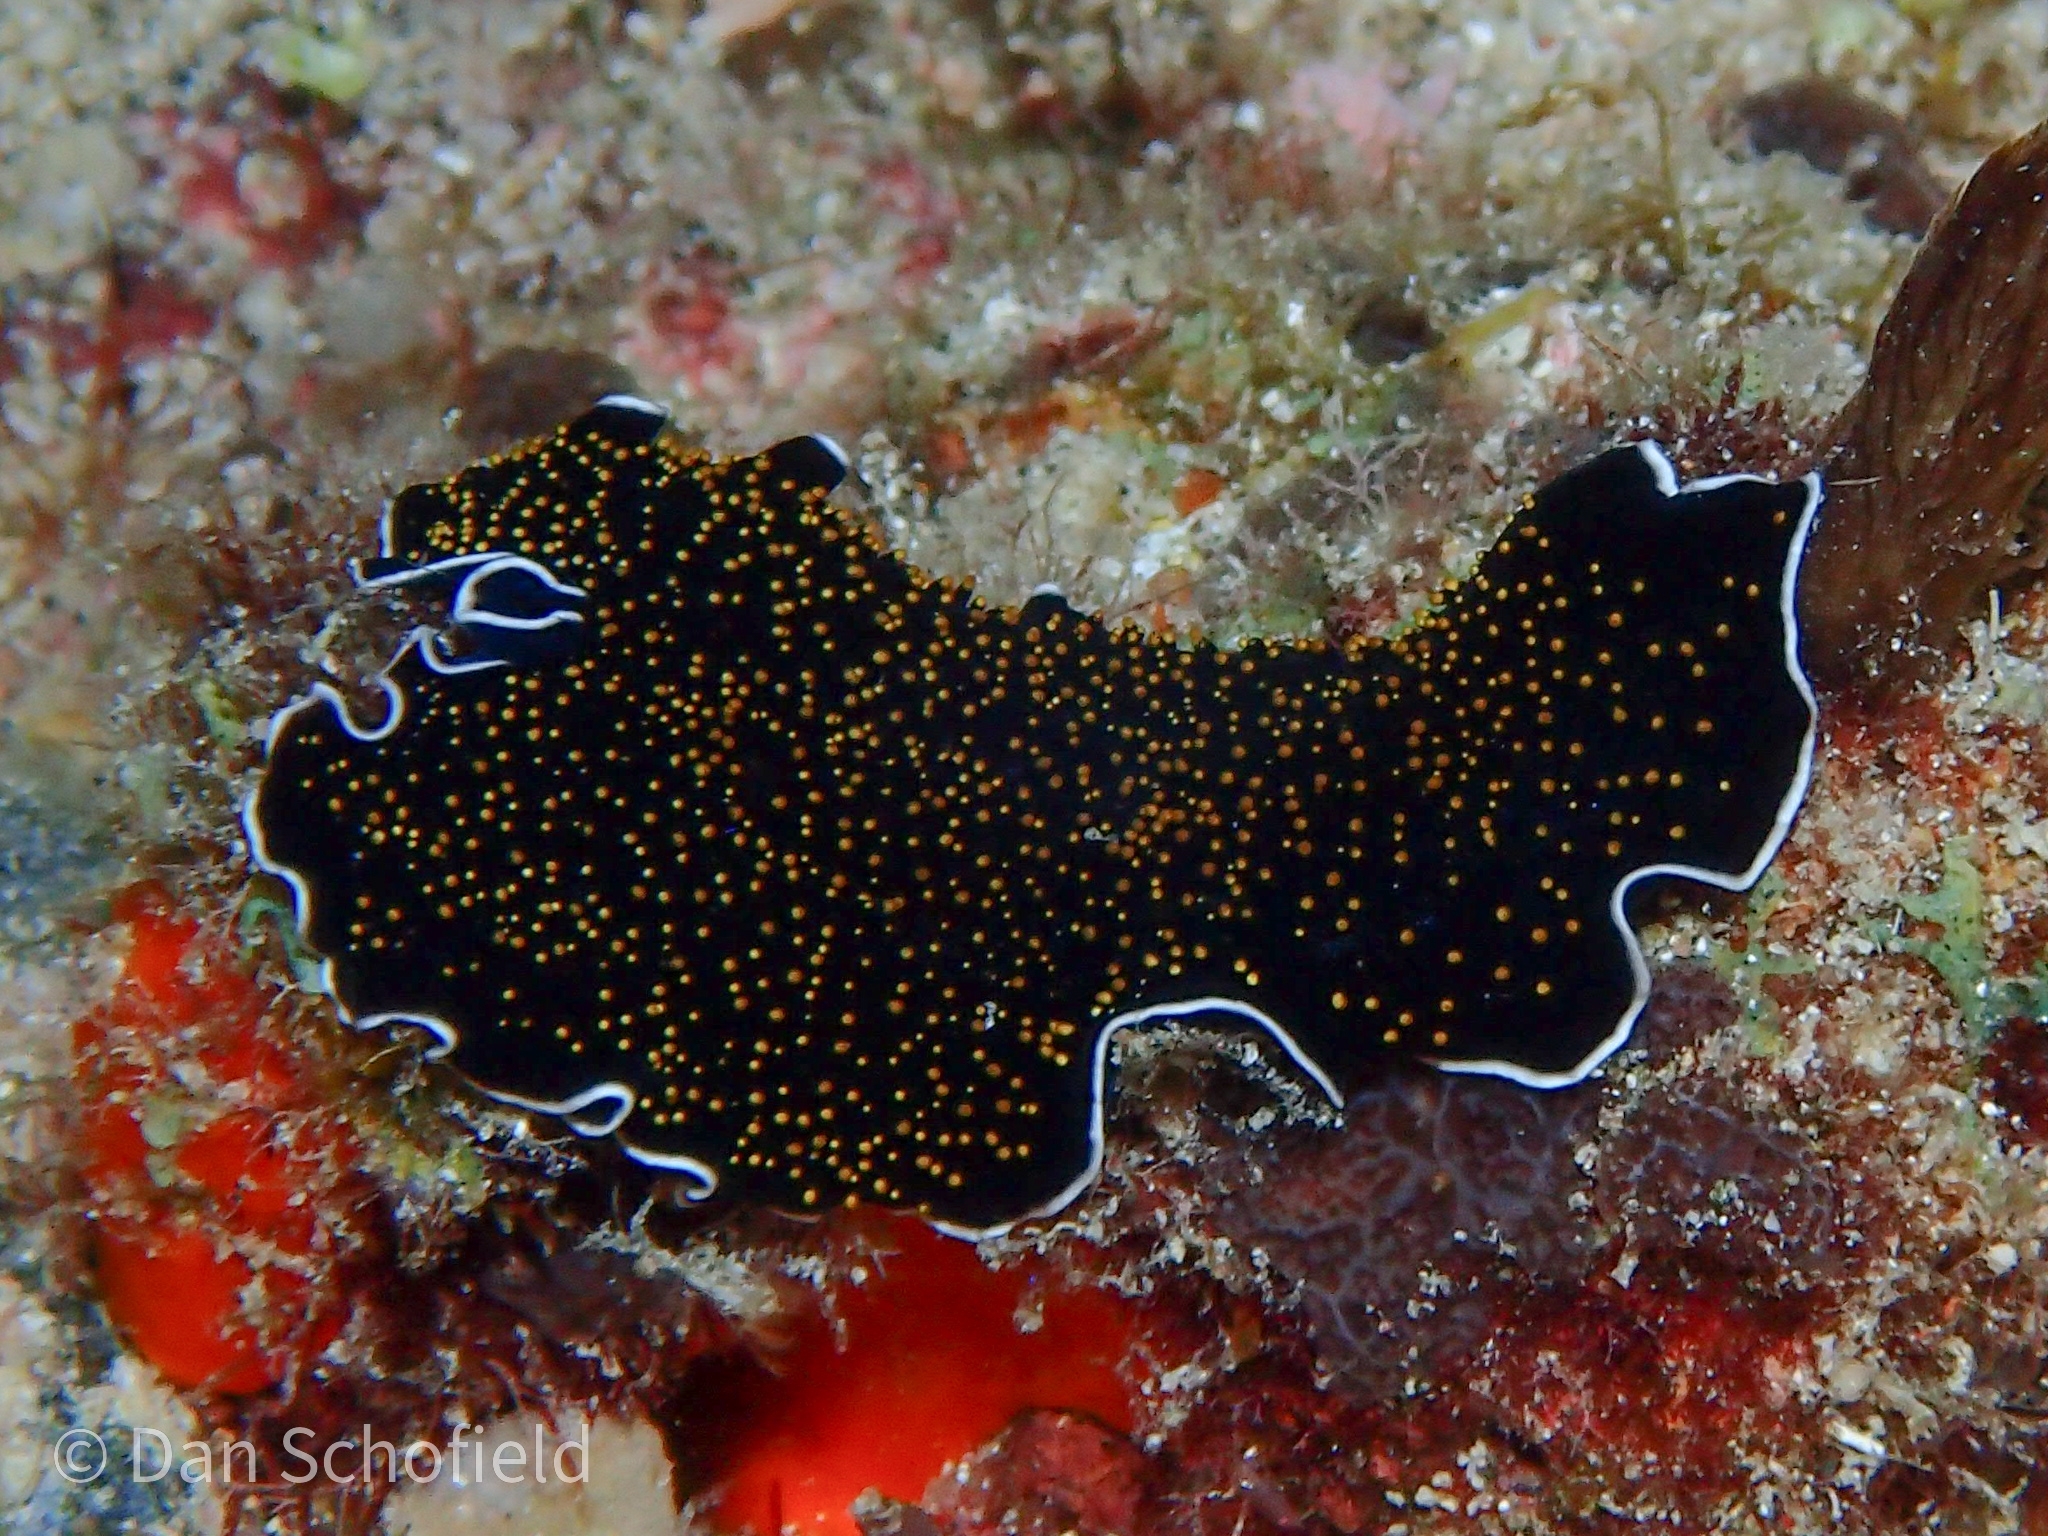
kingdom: Animalia
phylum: Platyhelminthes
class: Turbellaria
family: Pseudocerotidae
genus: Thysanozoon
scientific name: Thysanozoon nigropapillosum
